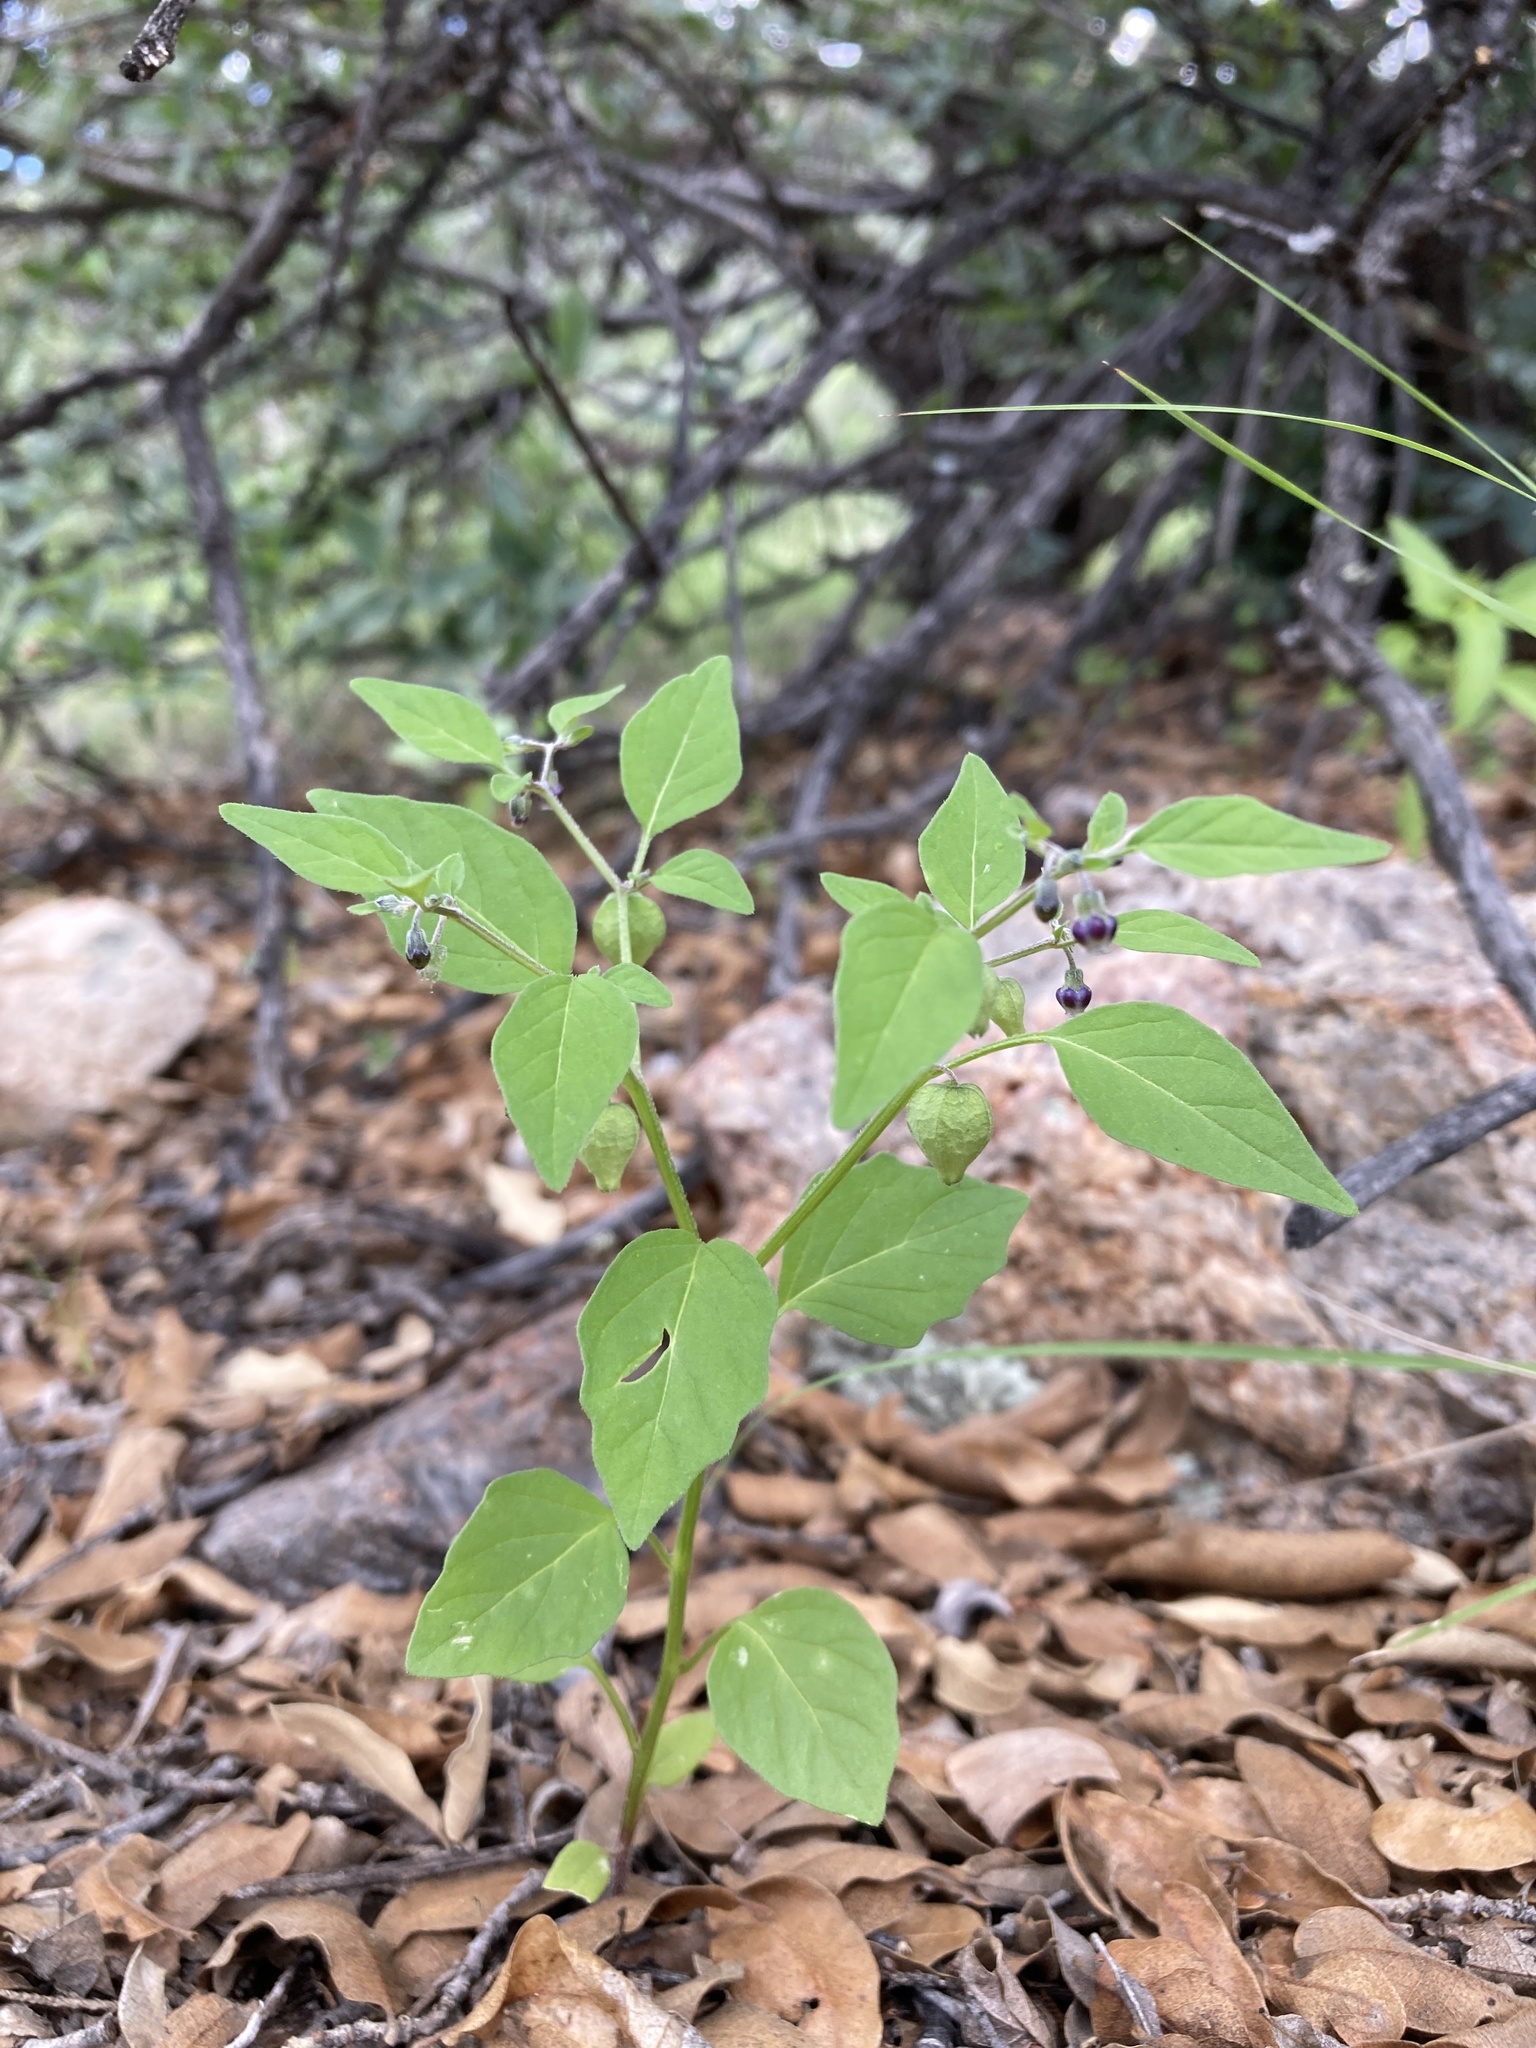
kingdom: Plantae
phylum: Tracheophyta
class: Magnoliopsida
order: Solanales
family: Solanaceae
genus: Physalis
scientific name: Physalis solanacea
